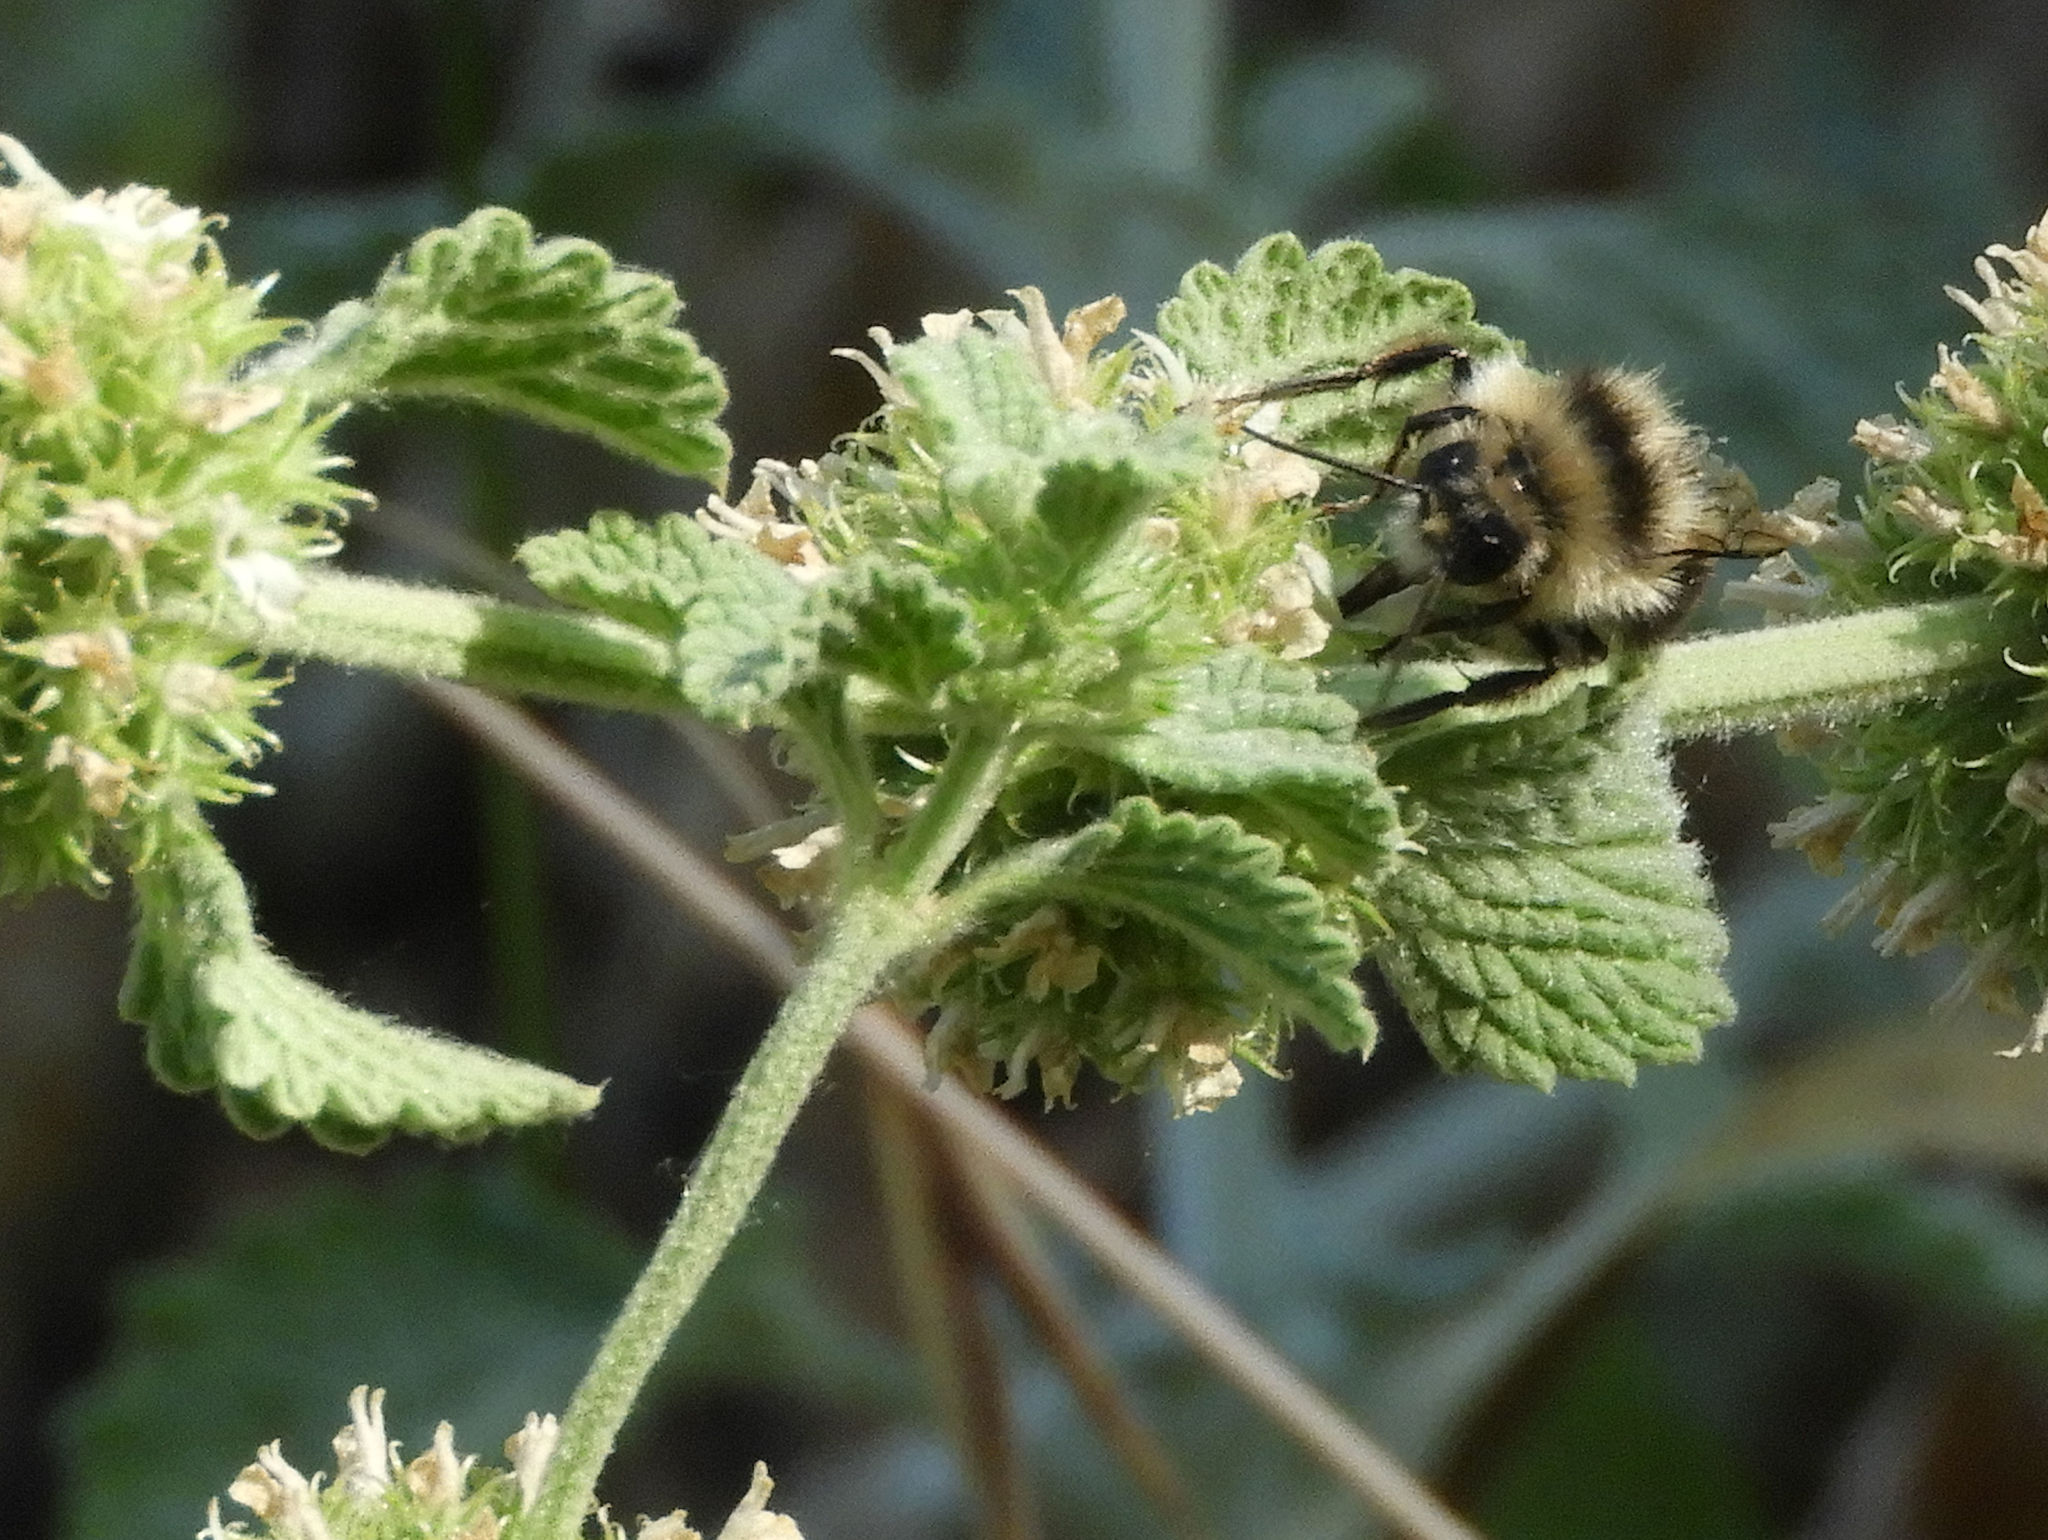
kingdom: Animalia
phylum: Arthropoda
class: Insecta
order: Hymenoptera
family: Apidae
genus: Bombus
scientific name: Bombus melanopygus
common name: Black tail bumble bee
